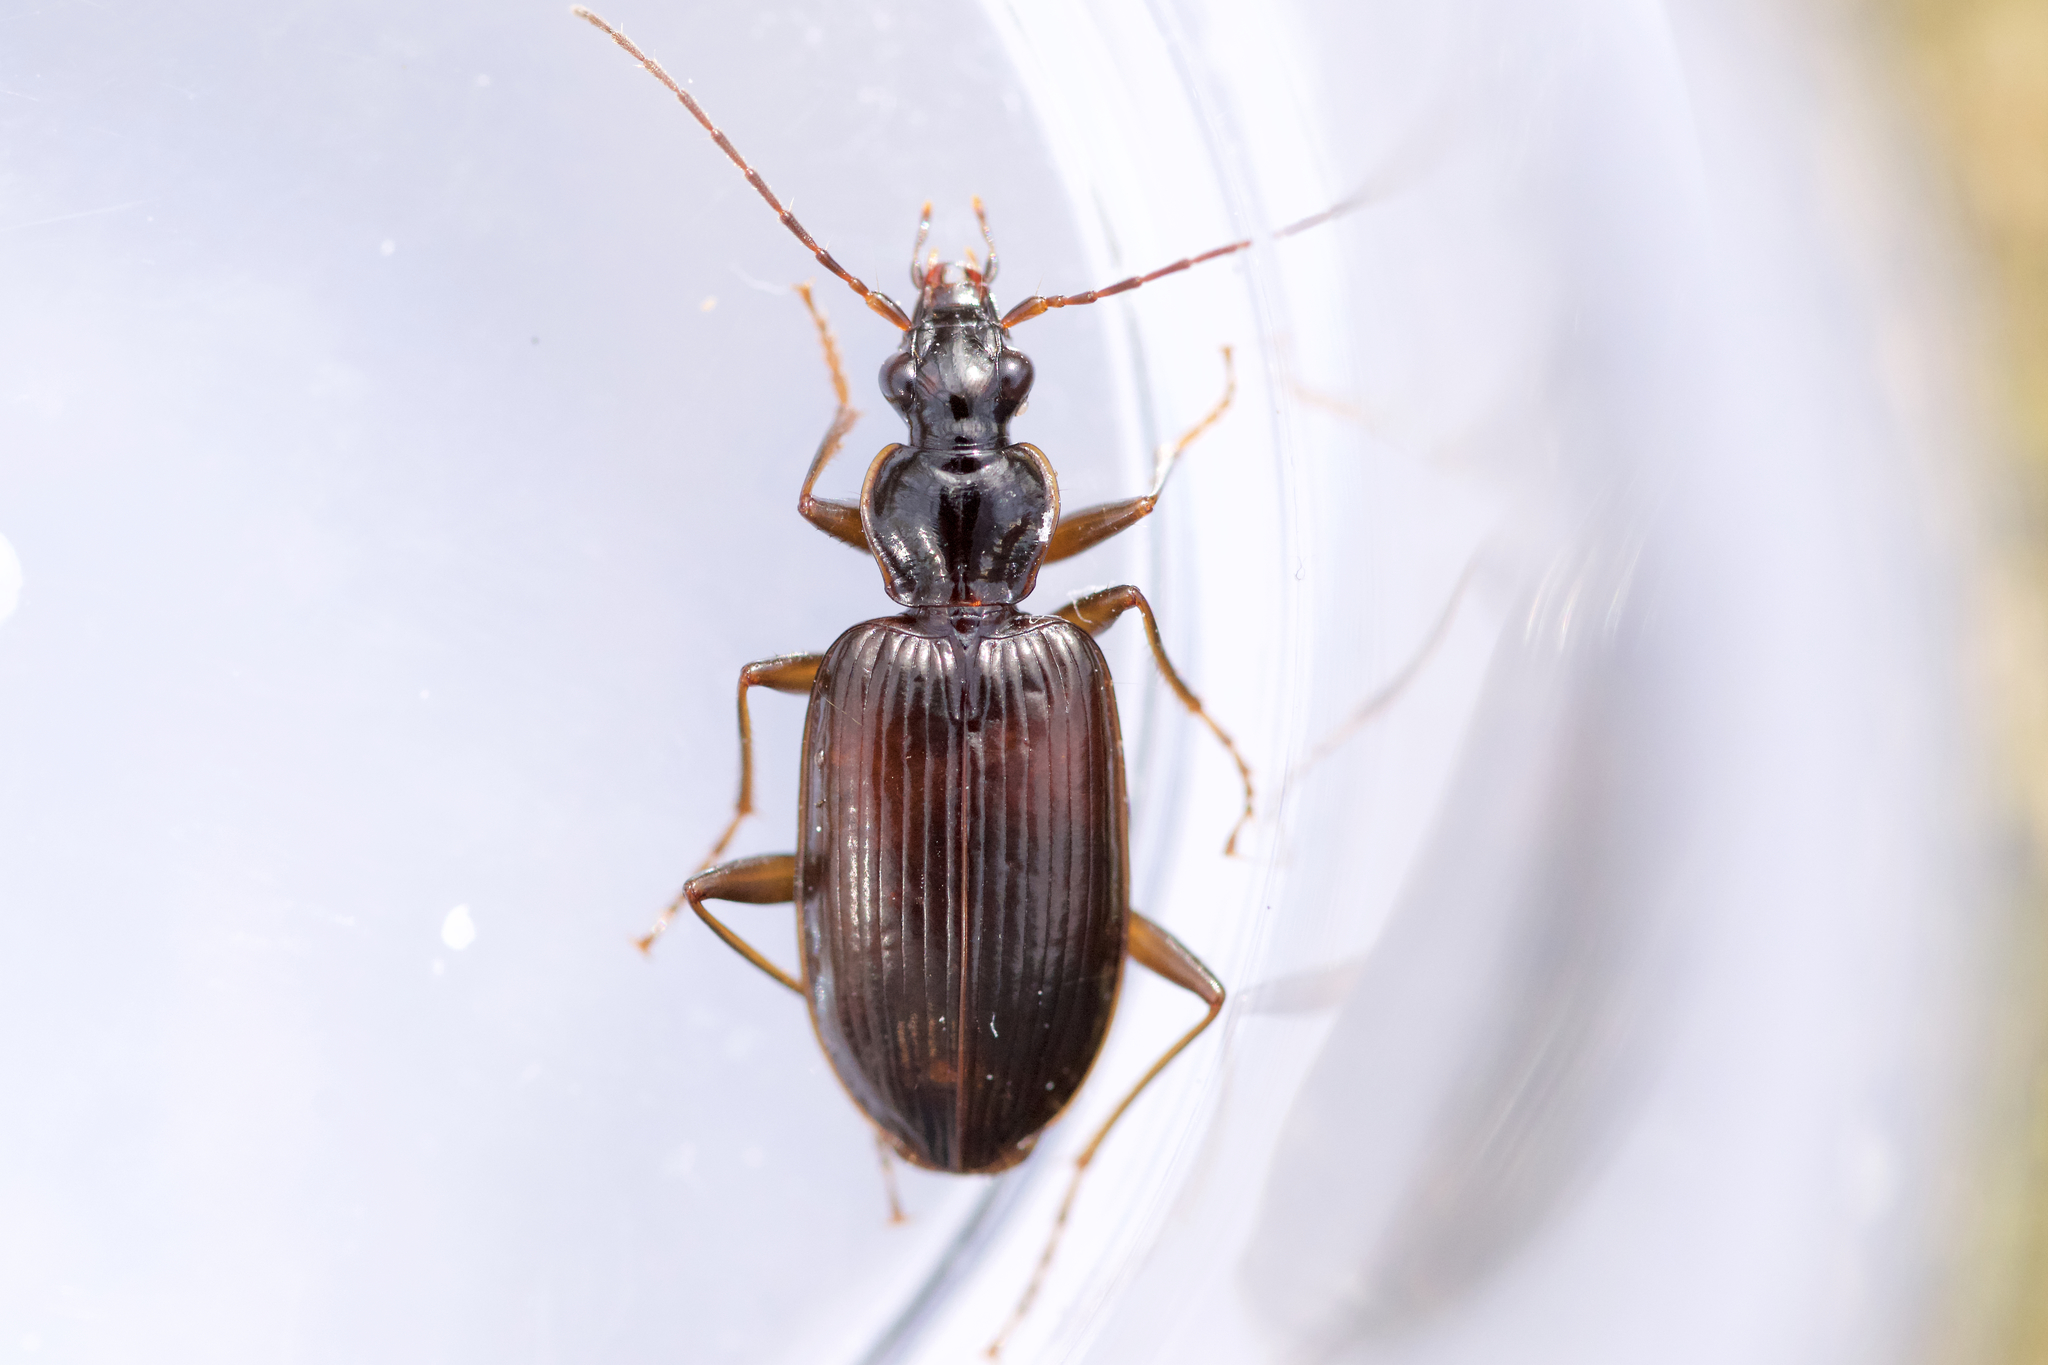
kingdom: Animalia
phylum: Arthropoda
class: Insecta
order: Coleoptera
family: Carabidae
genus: Platynus
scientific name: Platynus cincticollis
